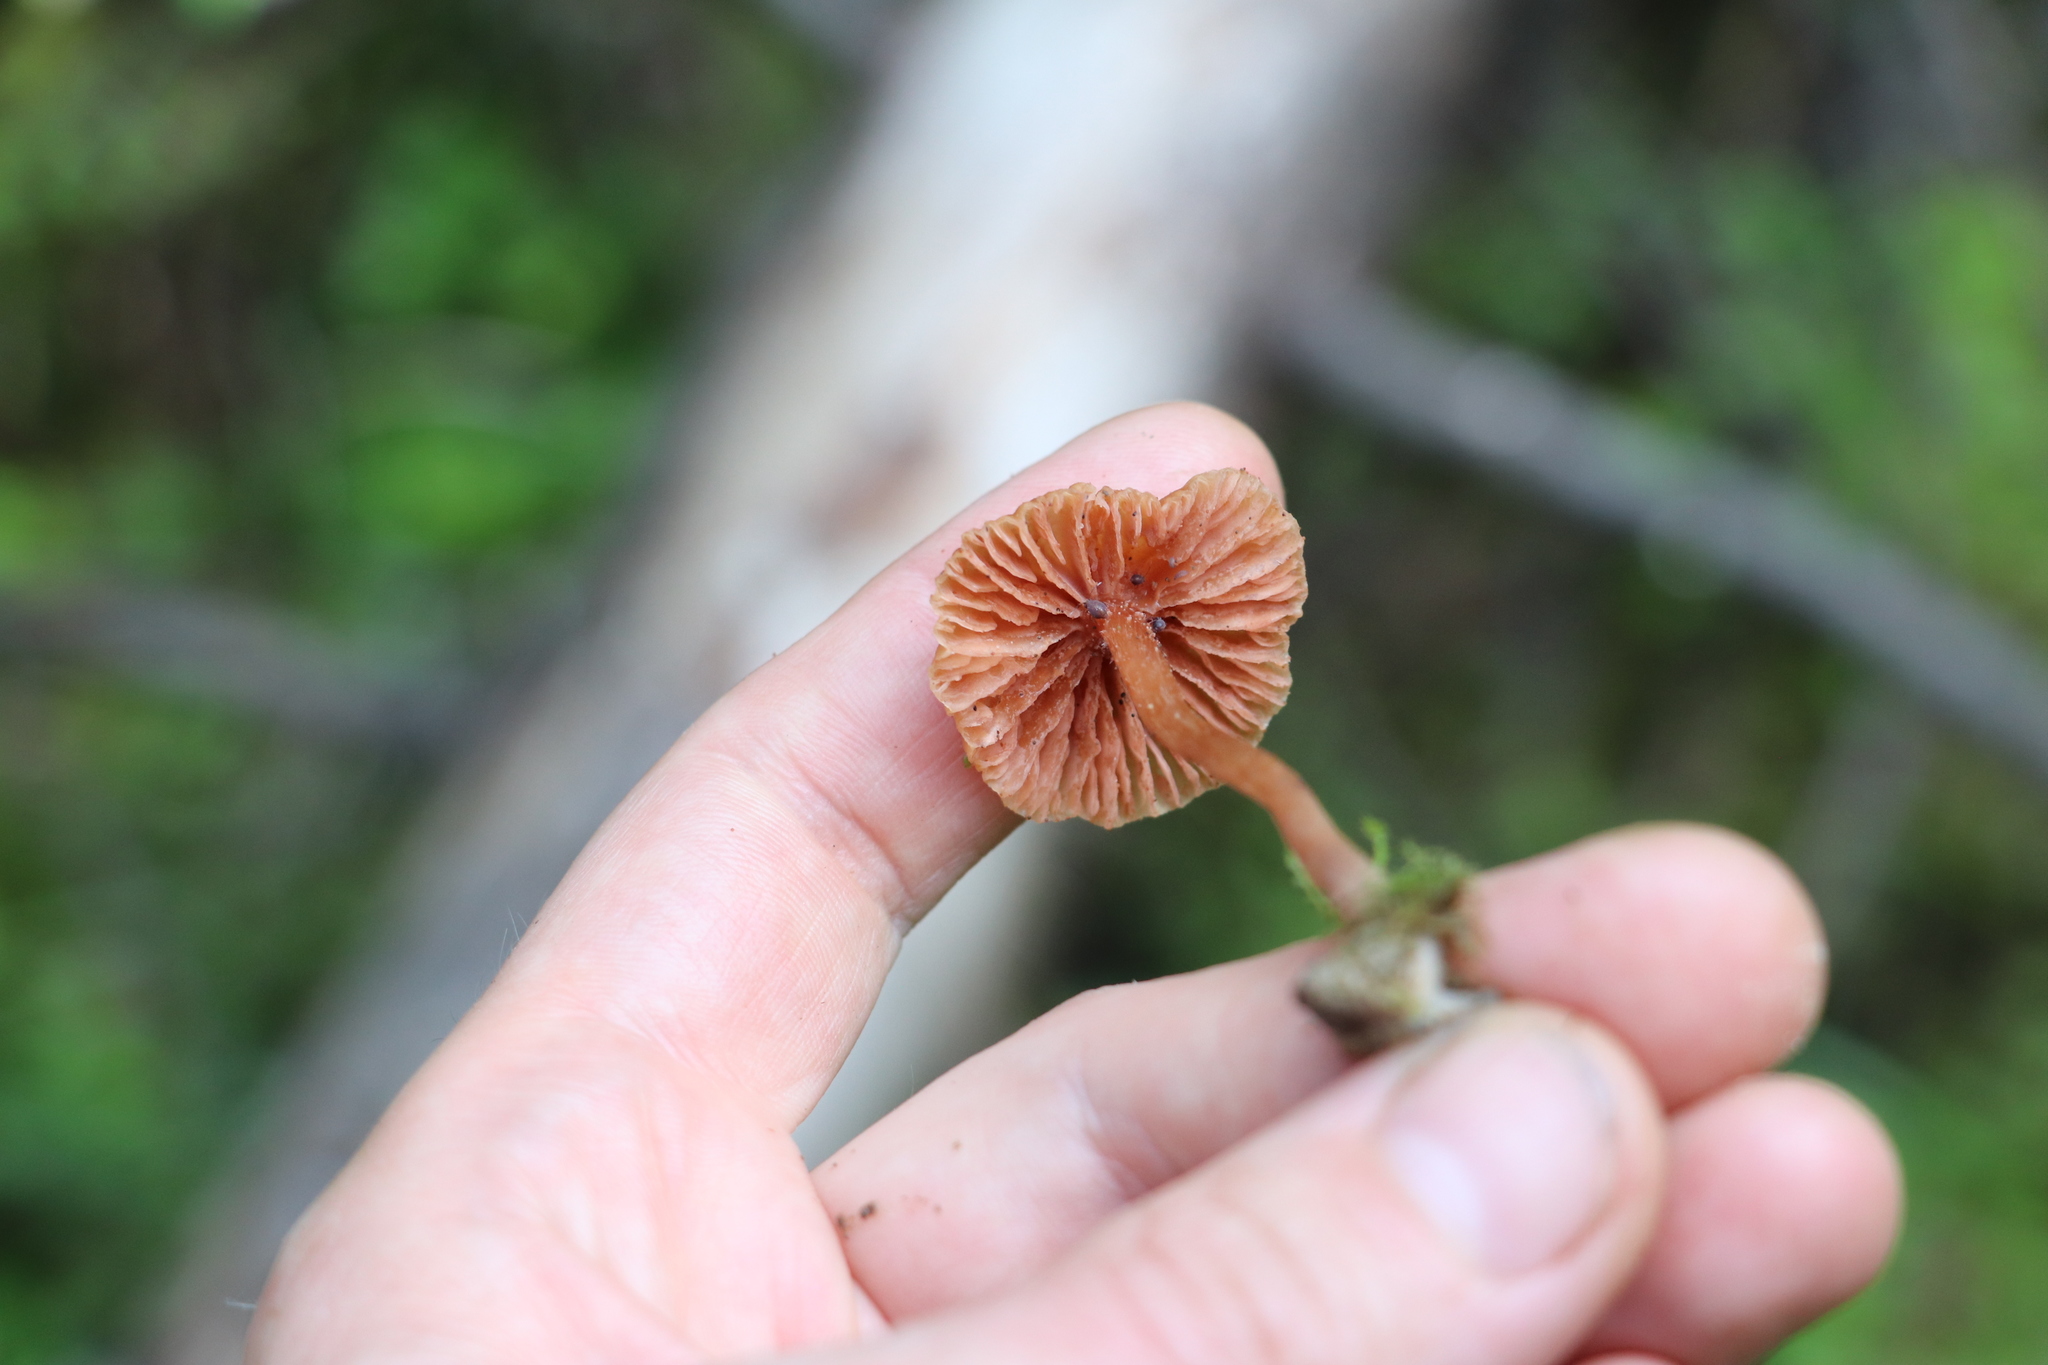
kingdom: Fungi
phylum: Basidiomycota
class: Agaricomycetes
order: Agaricales
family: Hydnangiaceae
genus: Laccaria
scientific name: Laccaria laccata
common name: Deceiver
